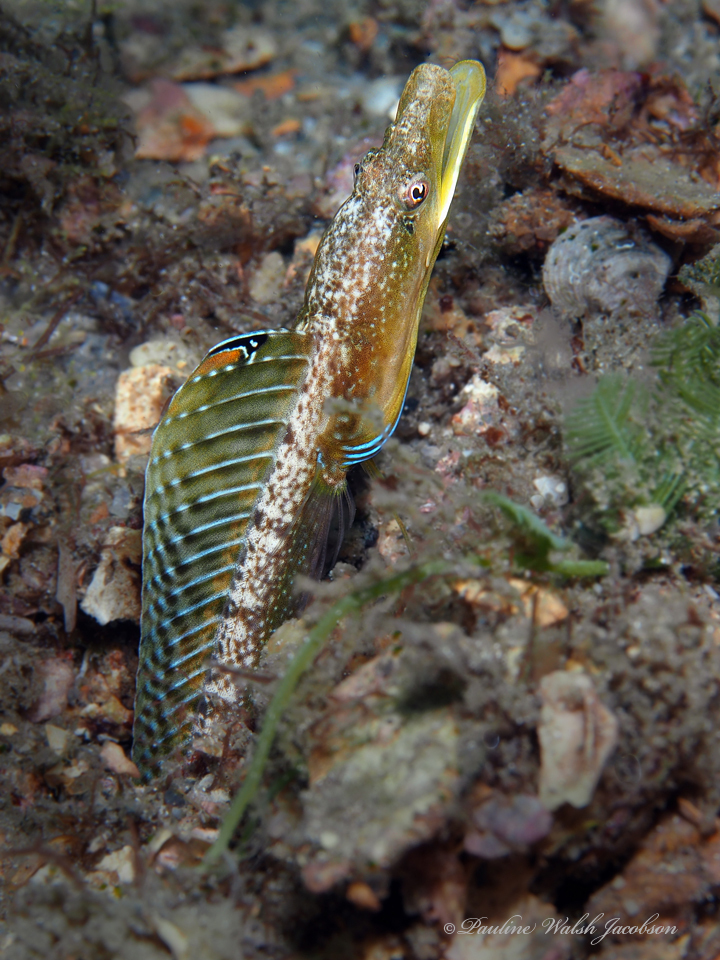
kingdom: Animalia
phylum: Chordata
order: Perciformes
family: Chaenopsidae
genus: Chaenopsis
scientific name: Chaenopsis ocellata
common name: Bluethroat pikeblenny
